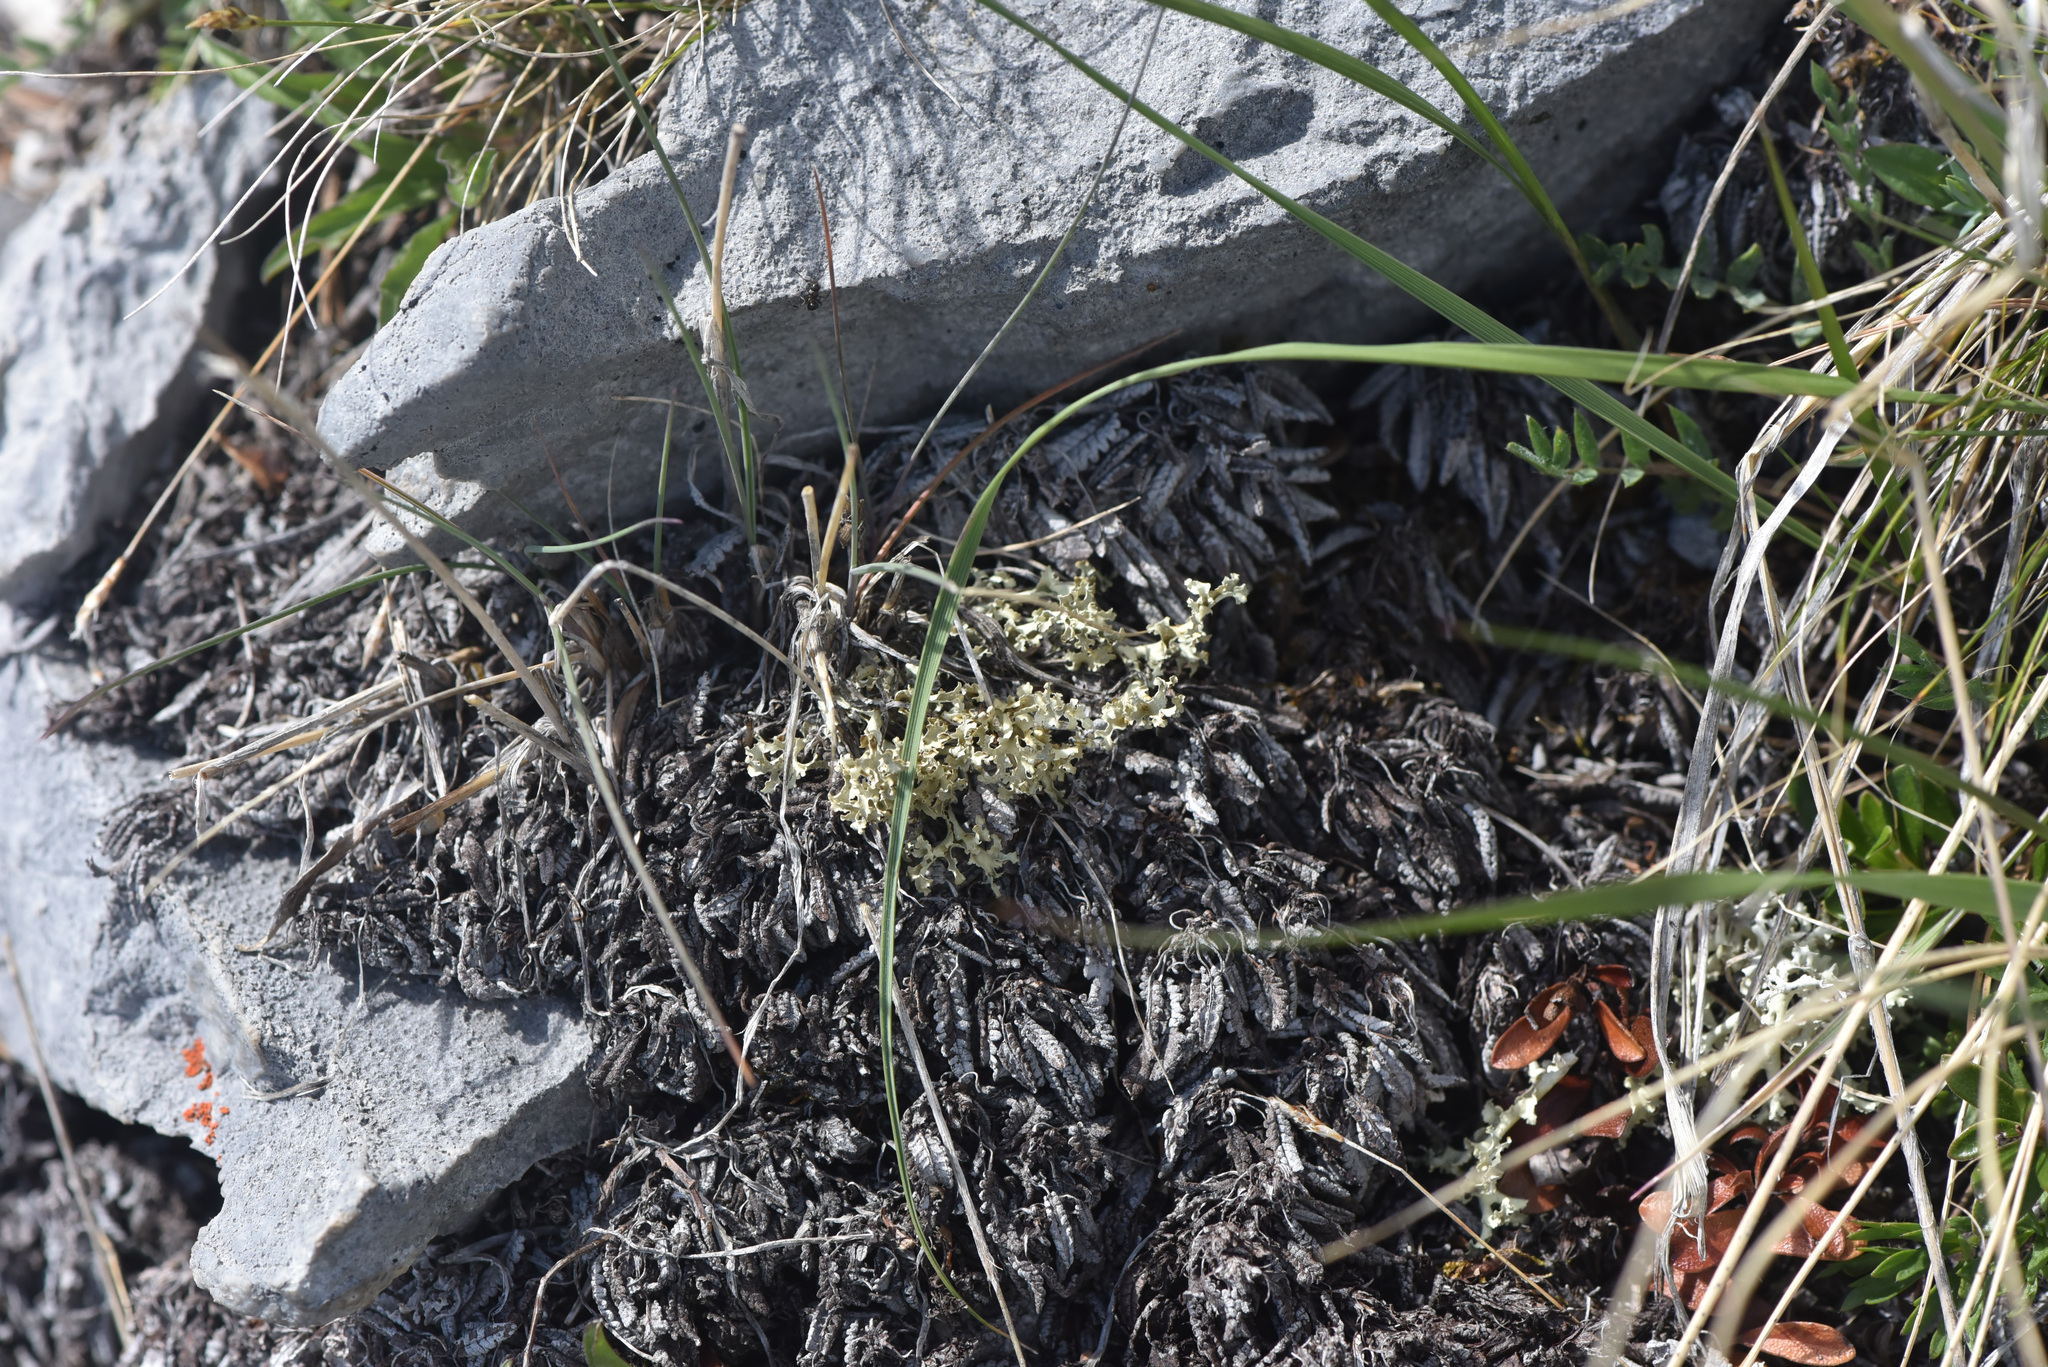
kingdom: Fungi
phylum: Ascomycota
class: Lecanoromycetes
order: Lecanorales
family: Parmeliaceae
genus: Nephromopsis
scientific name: Nephromopsis cucullata
